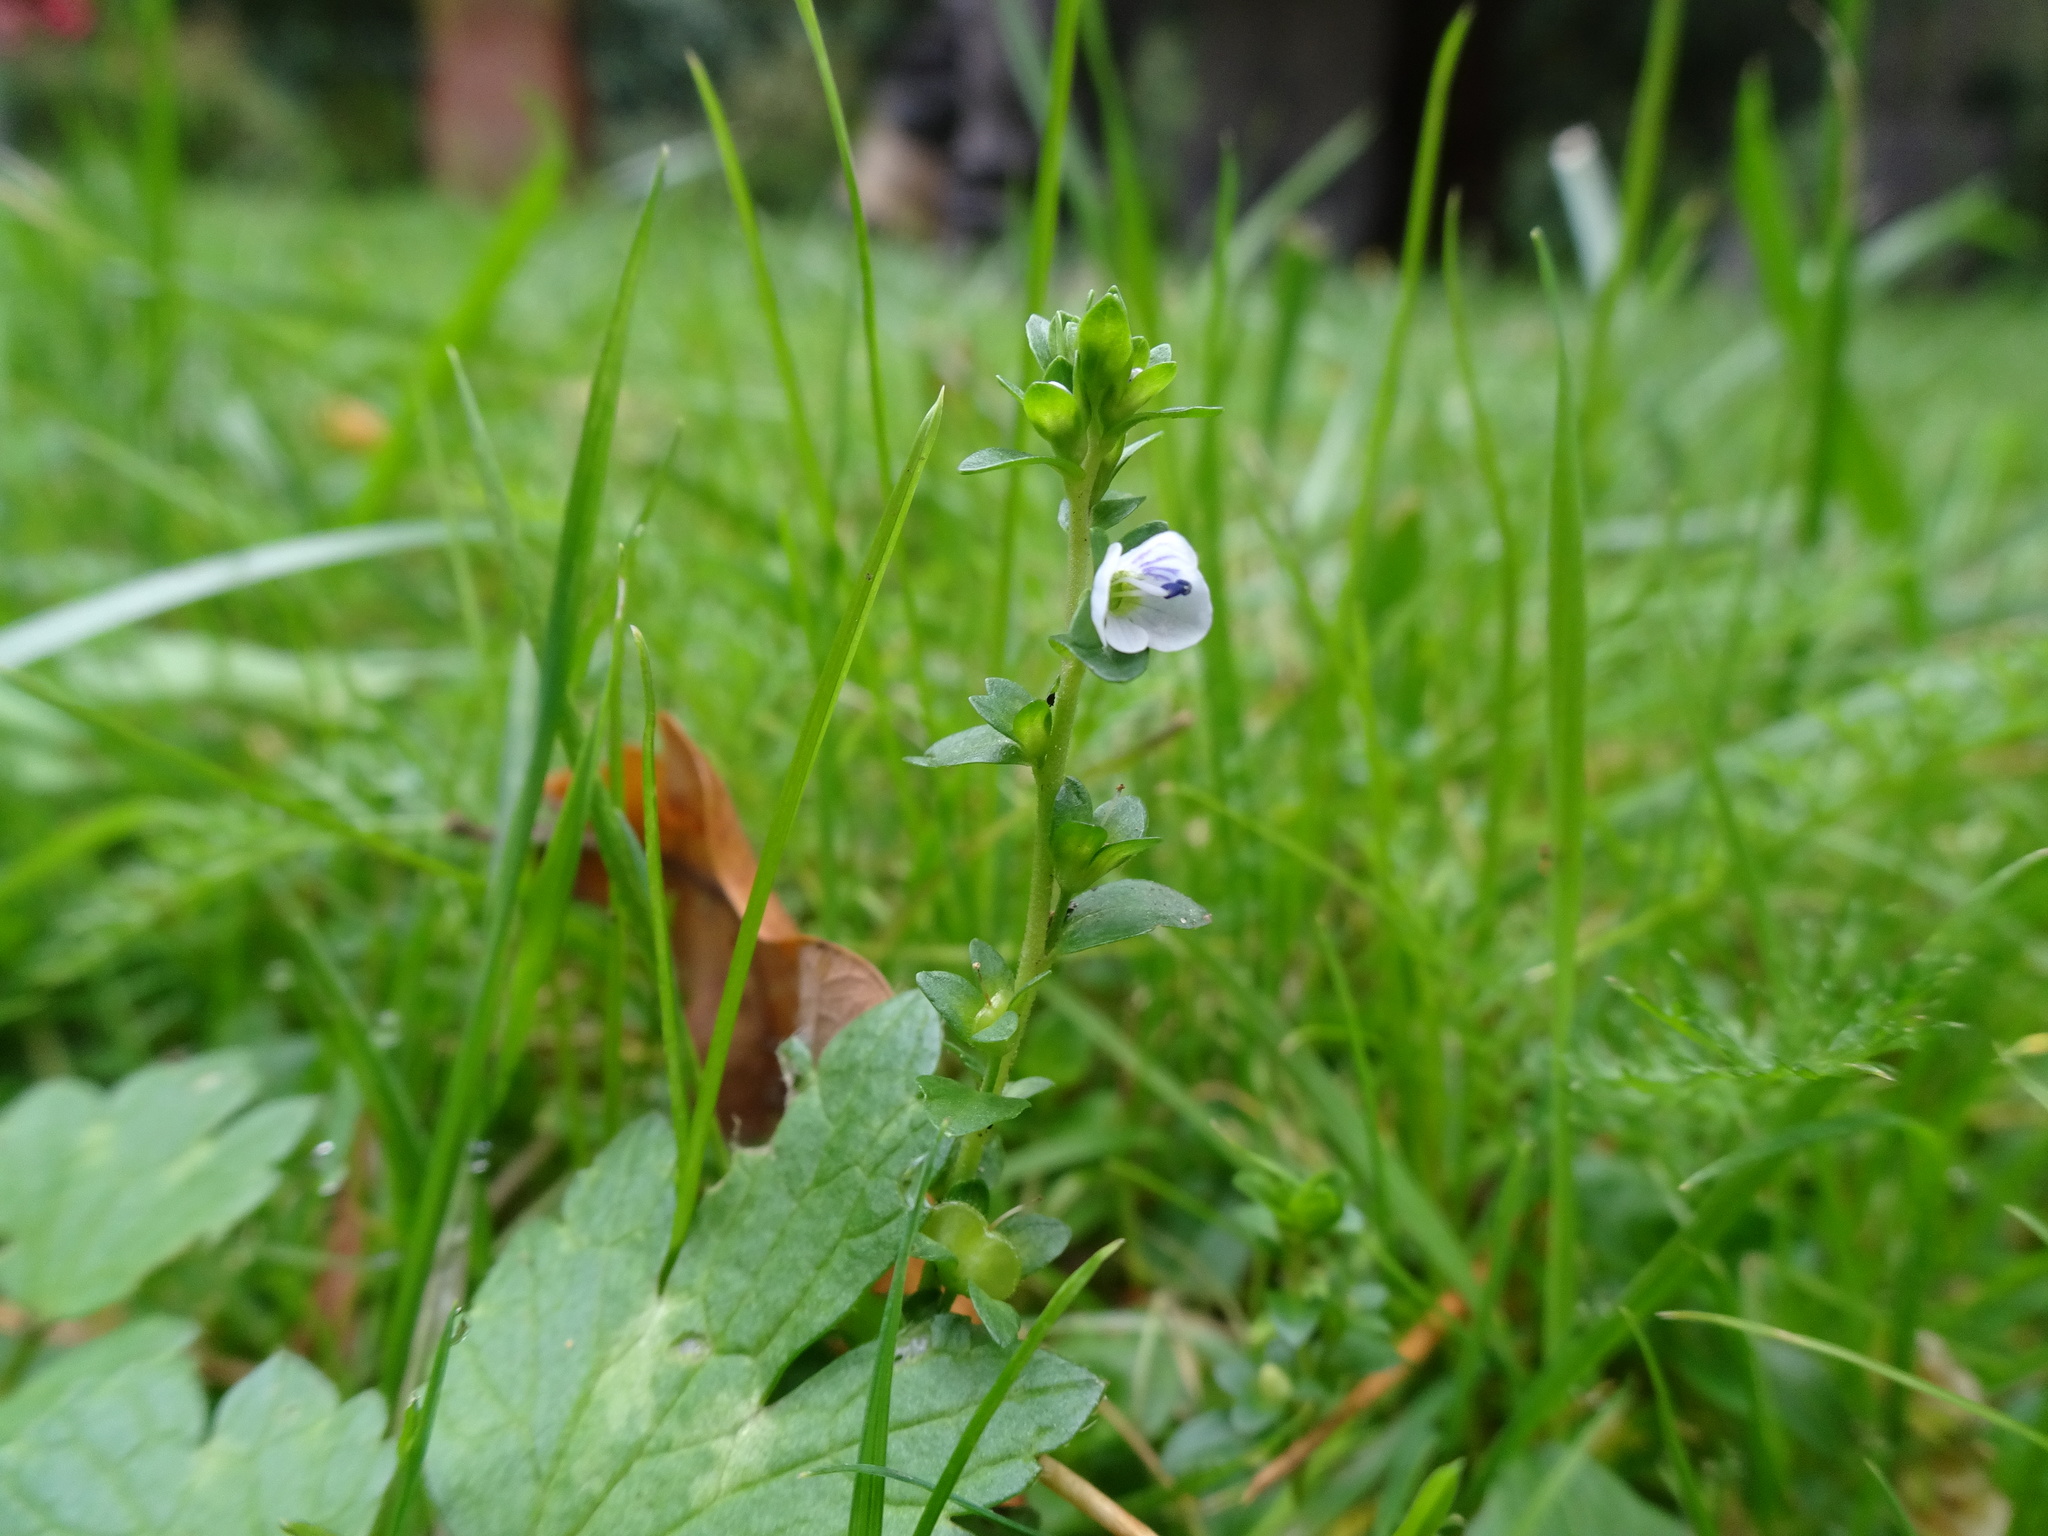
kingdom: Plantae
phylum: Tracheophyta
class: Magnoliopsida
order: Lamiales
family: Plantaginaceae
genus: Veronica
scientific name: Veronica serpyllifolia
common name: Thyme-leaved speedwell
